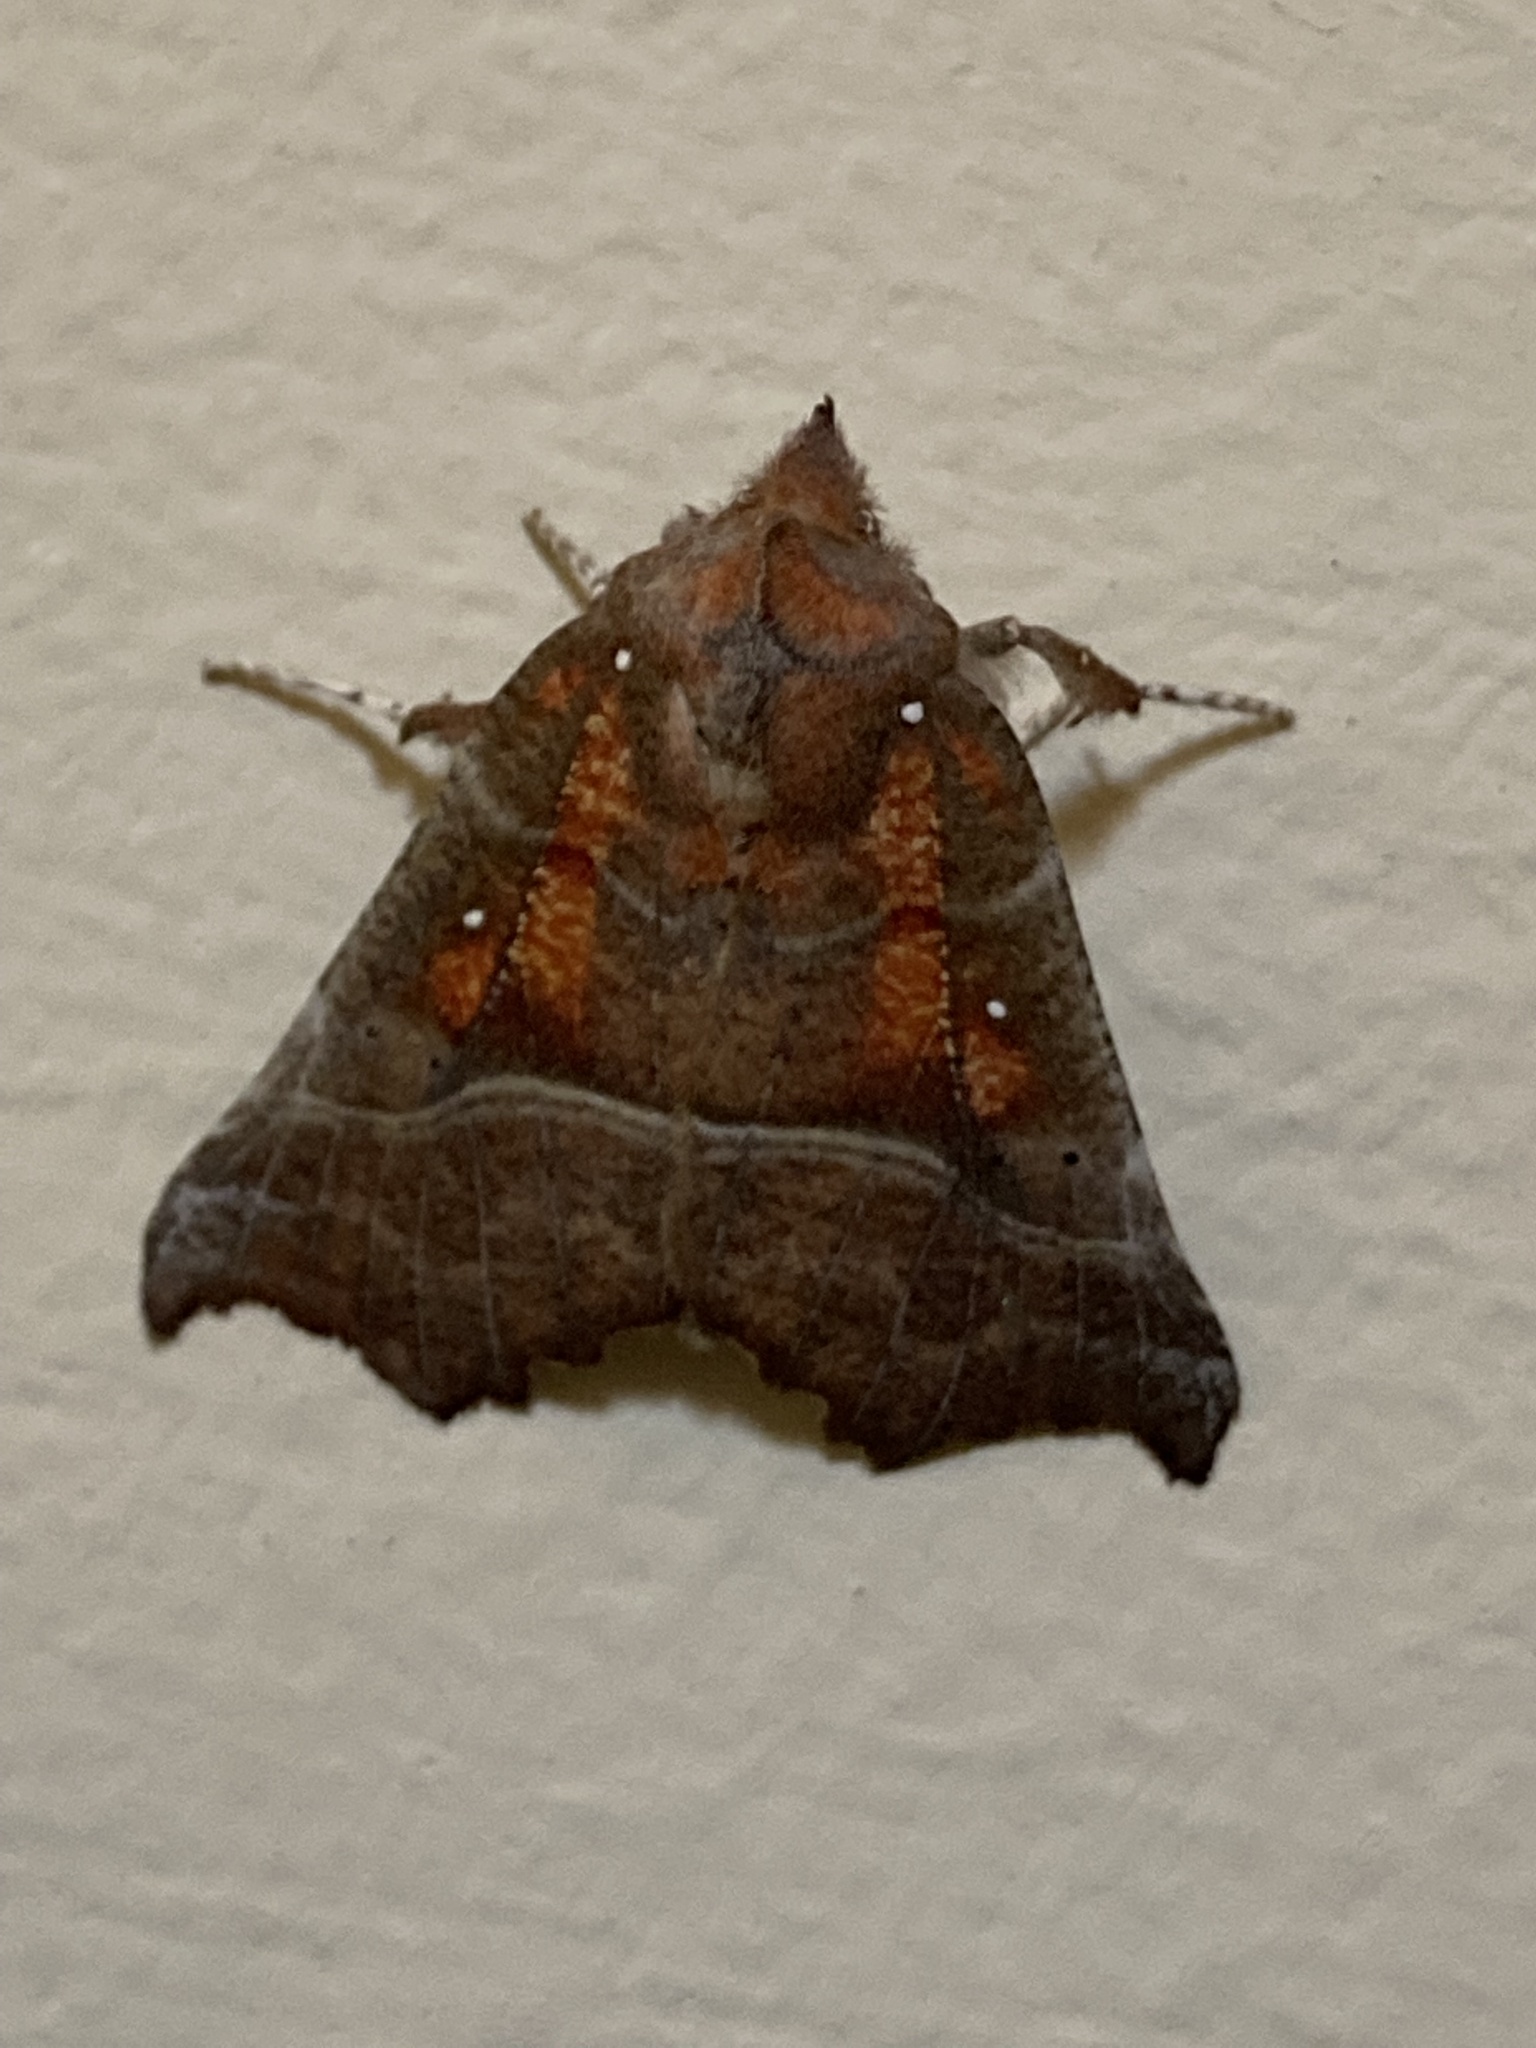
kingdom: Animalia
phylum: Arthropoda
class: Insecta
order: Lepidoptera
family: Erebidae
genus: Scoliopteryx
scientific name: Scoliopteryx libatrix
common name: Herald
